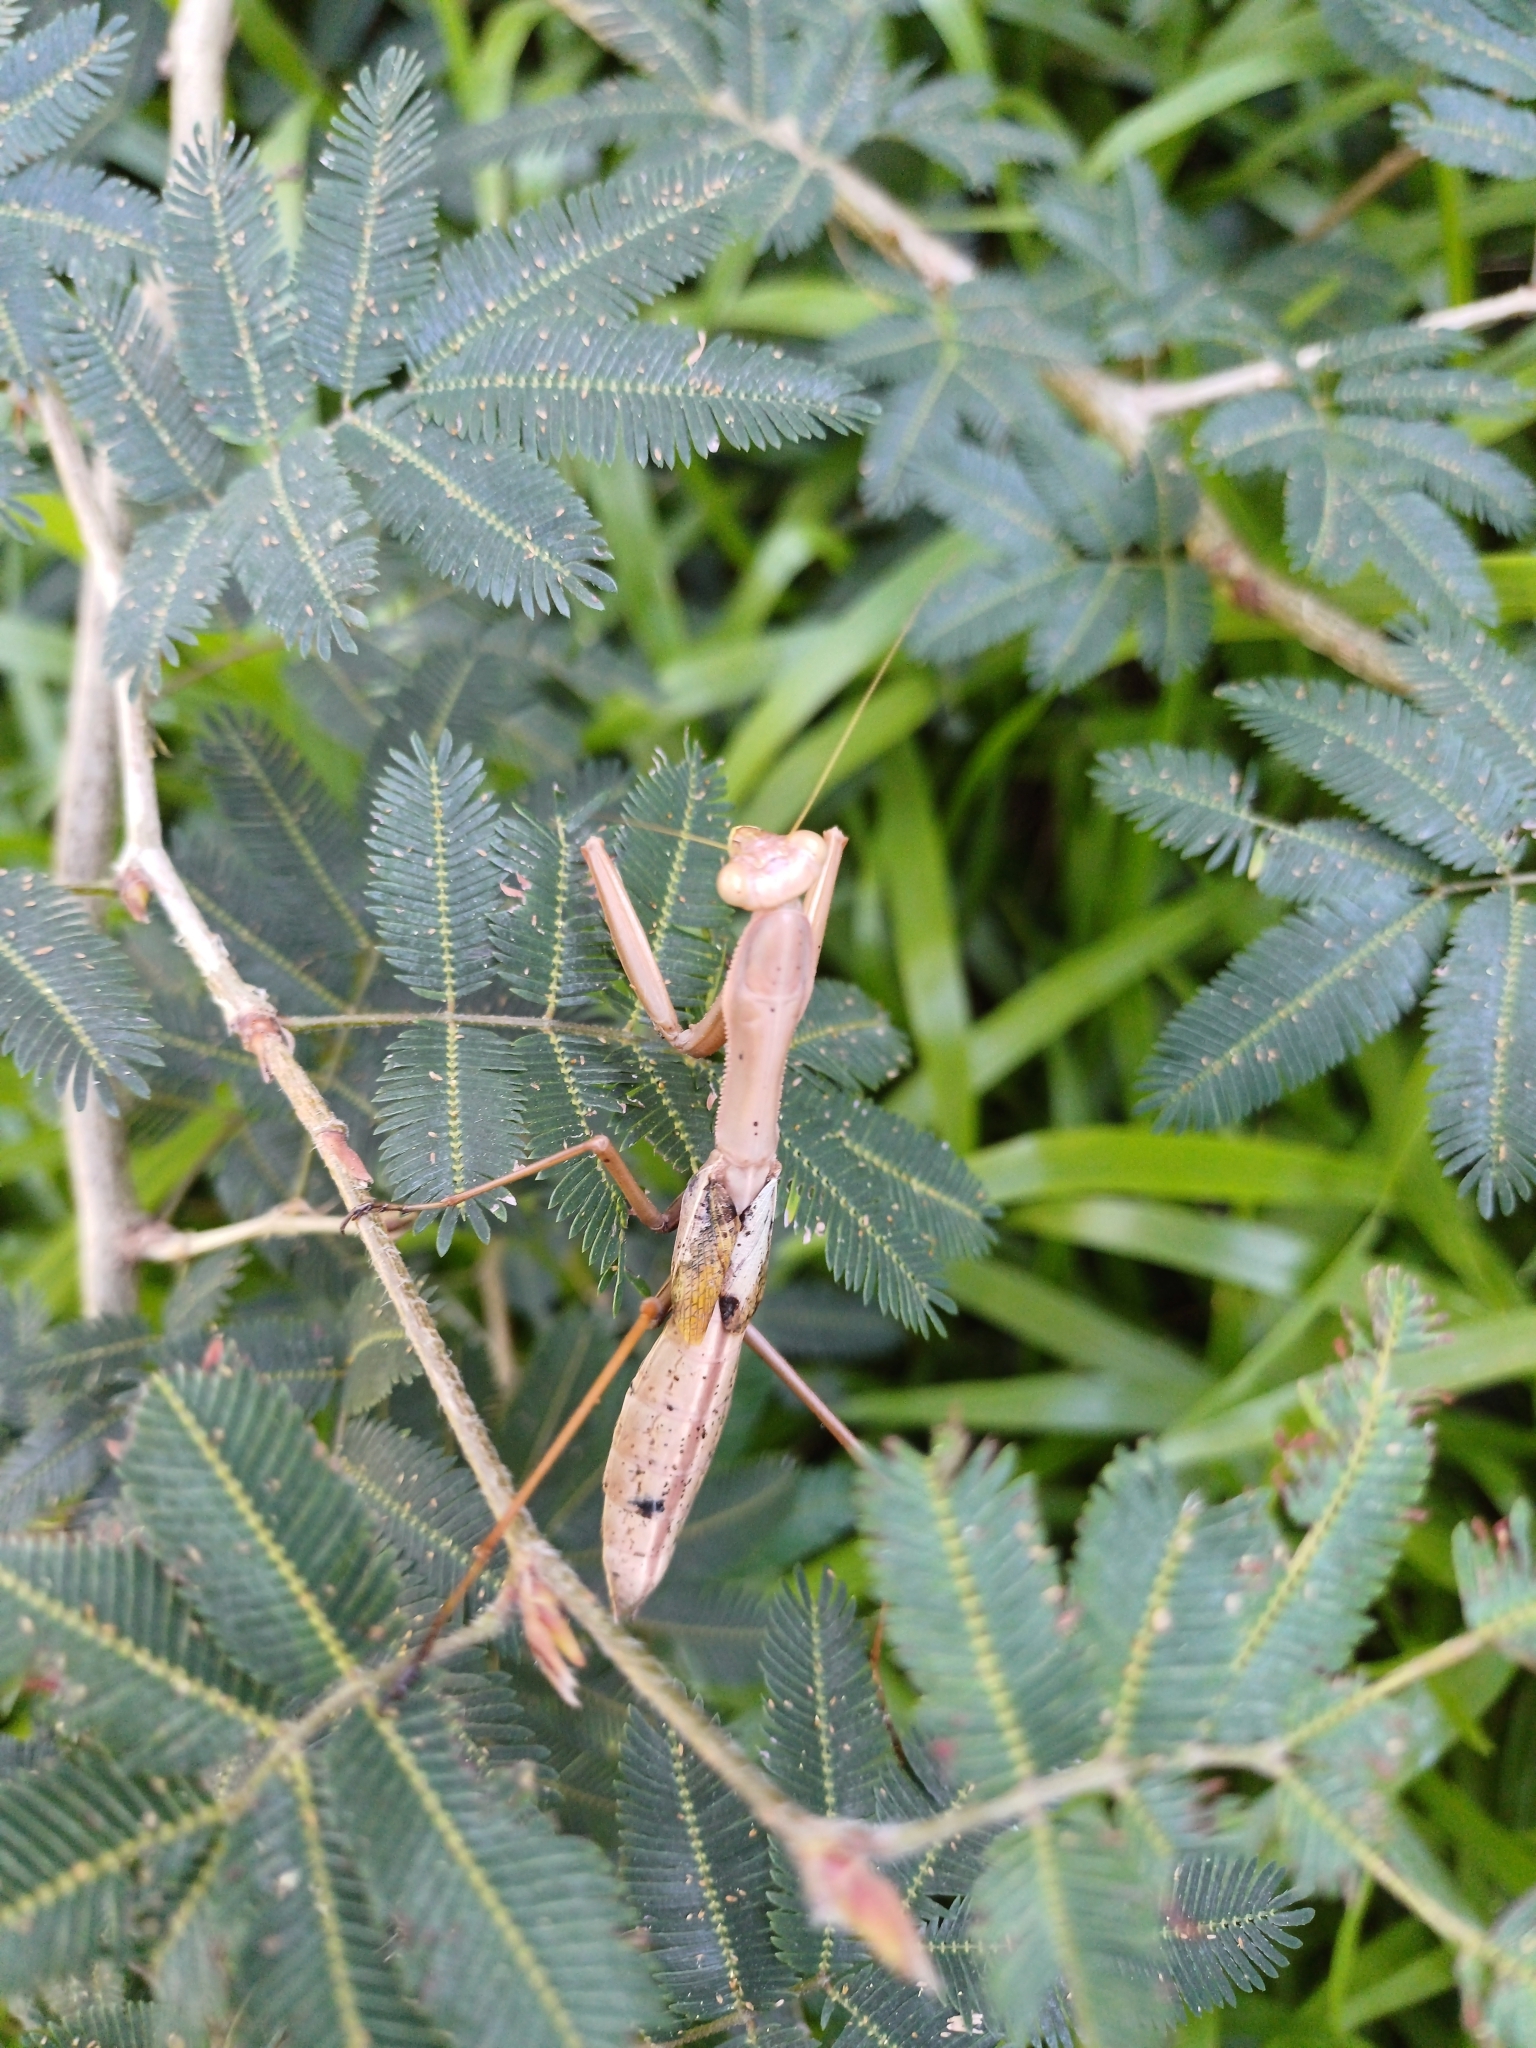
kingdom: Animalia
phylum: Arthropoda
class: Insecta
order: Mantodea
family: Coptopterygidae
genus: Coptopteryx
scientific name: Coptopteryx argentina
